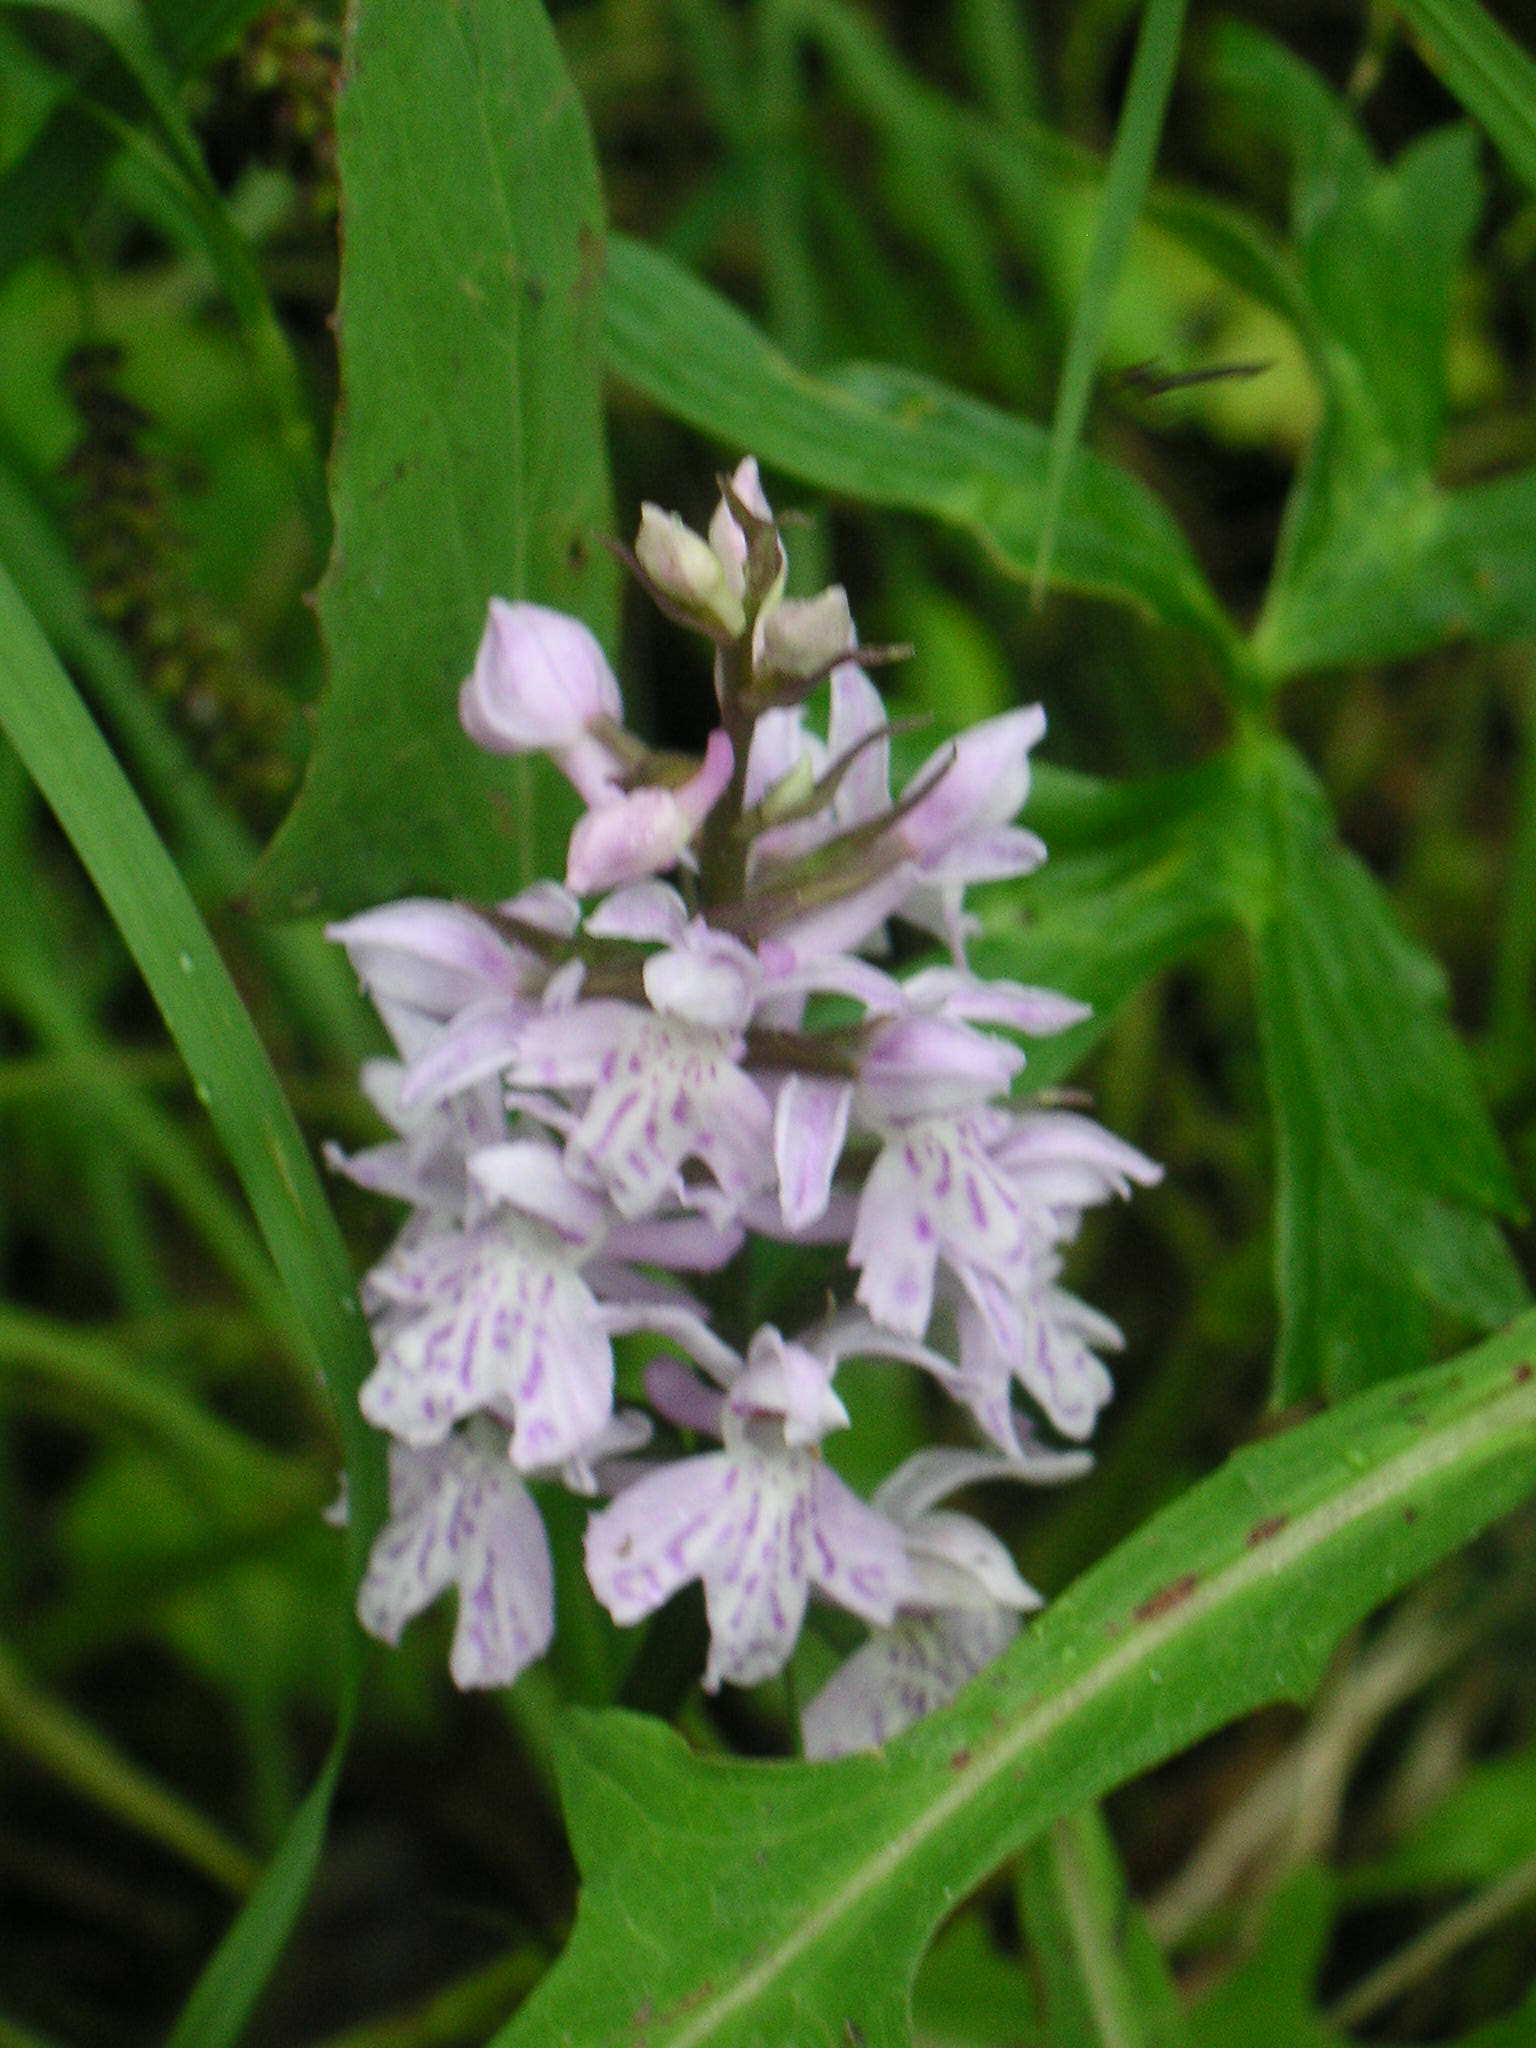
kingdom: Plantae
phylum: Tracheophyta
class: Liliopsida
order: Asparagales
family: Orchidaceae
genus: Dactylorhiza
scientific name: Dactylorhiza maculata
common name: Heath spotted-orchid
